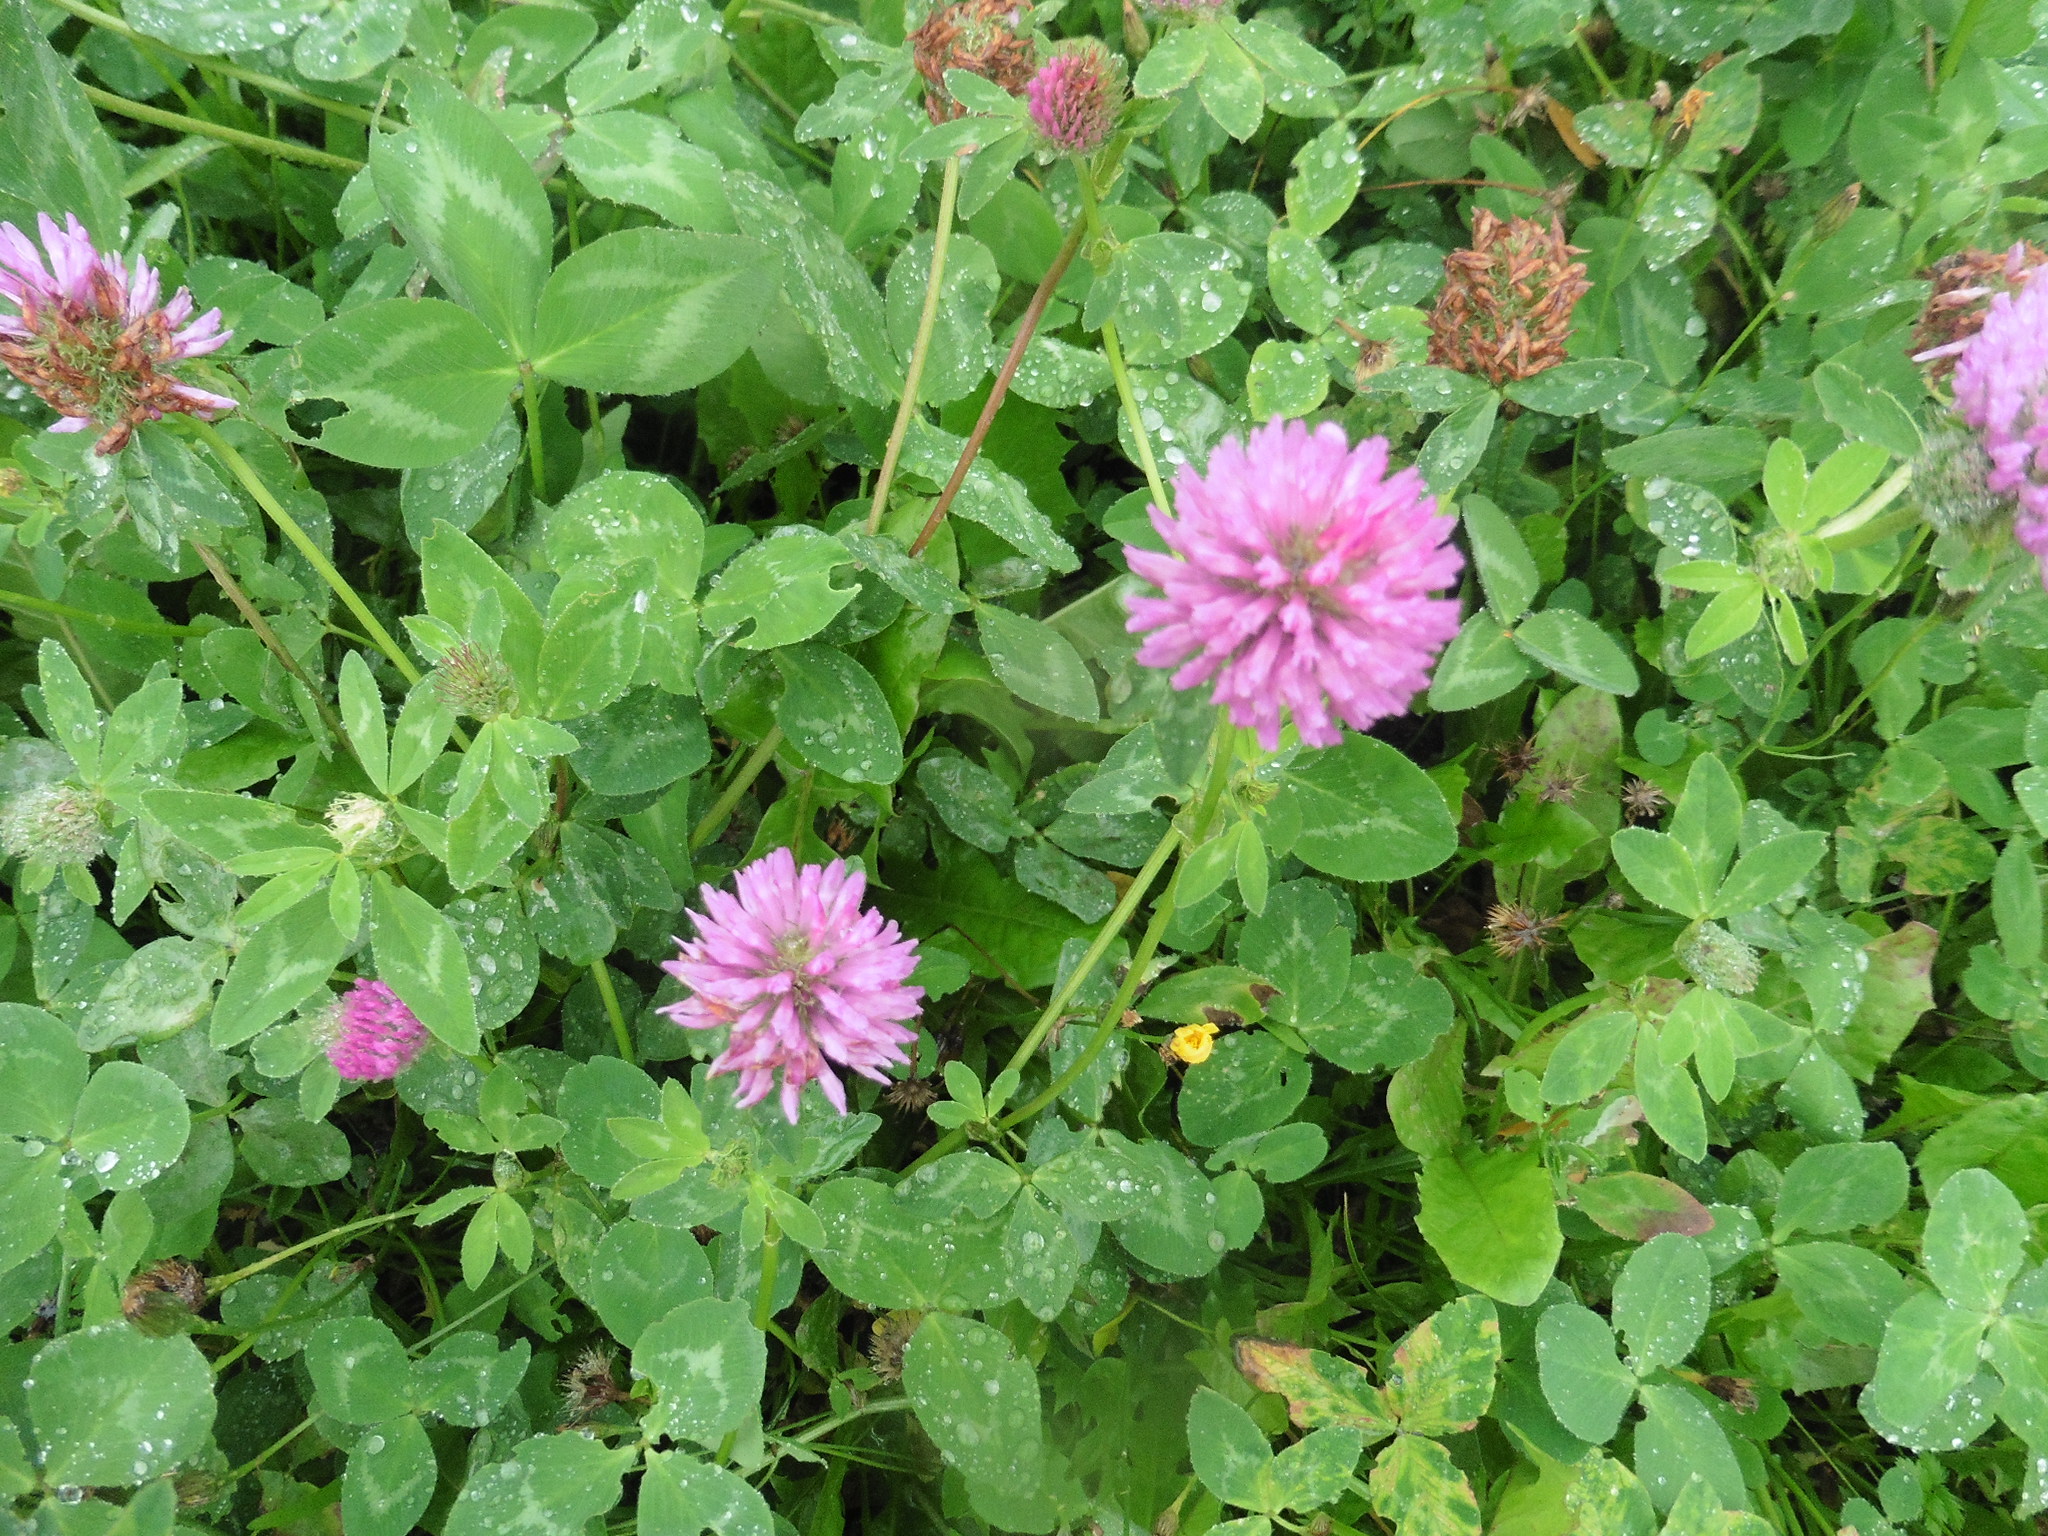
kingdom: Plantae
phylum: Tracheophyta
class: Magnoliopsida
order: Fabales
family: Fabaceae
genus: Trifolium
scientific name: Trifolium pratense
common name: Red clover
